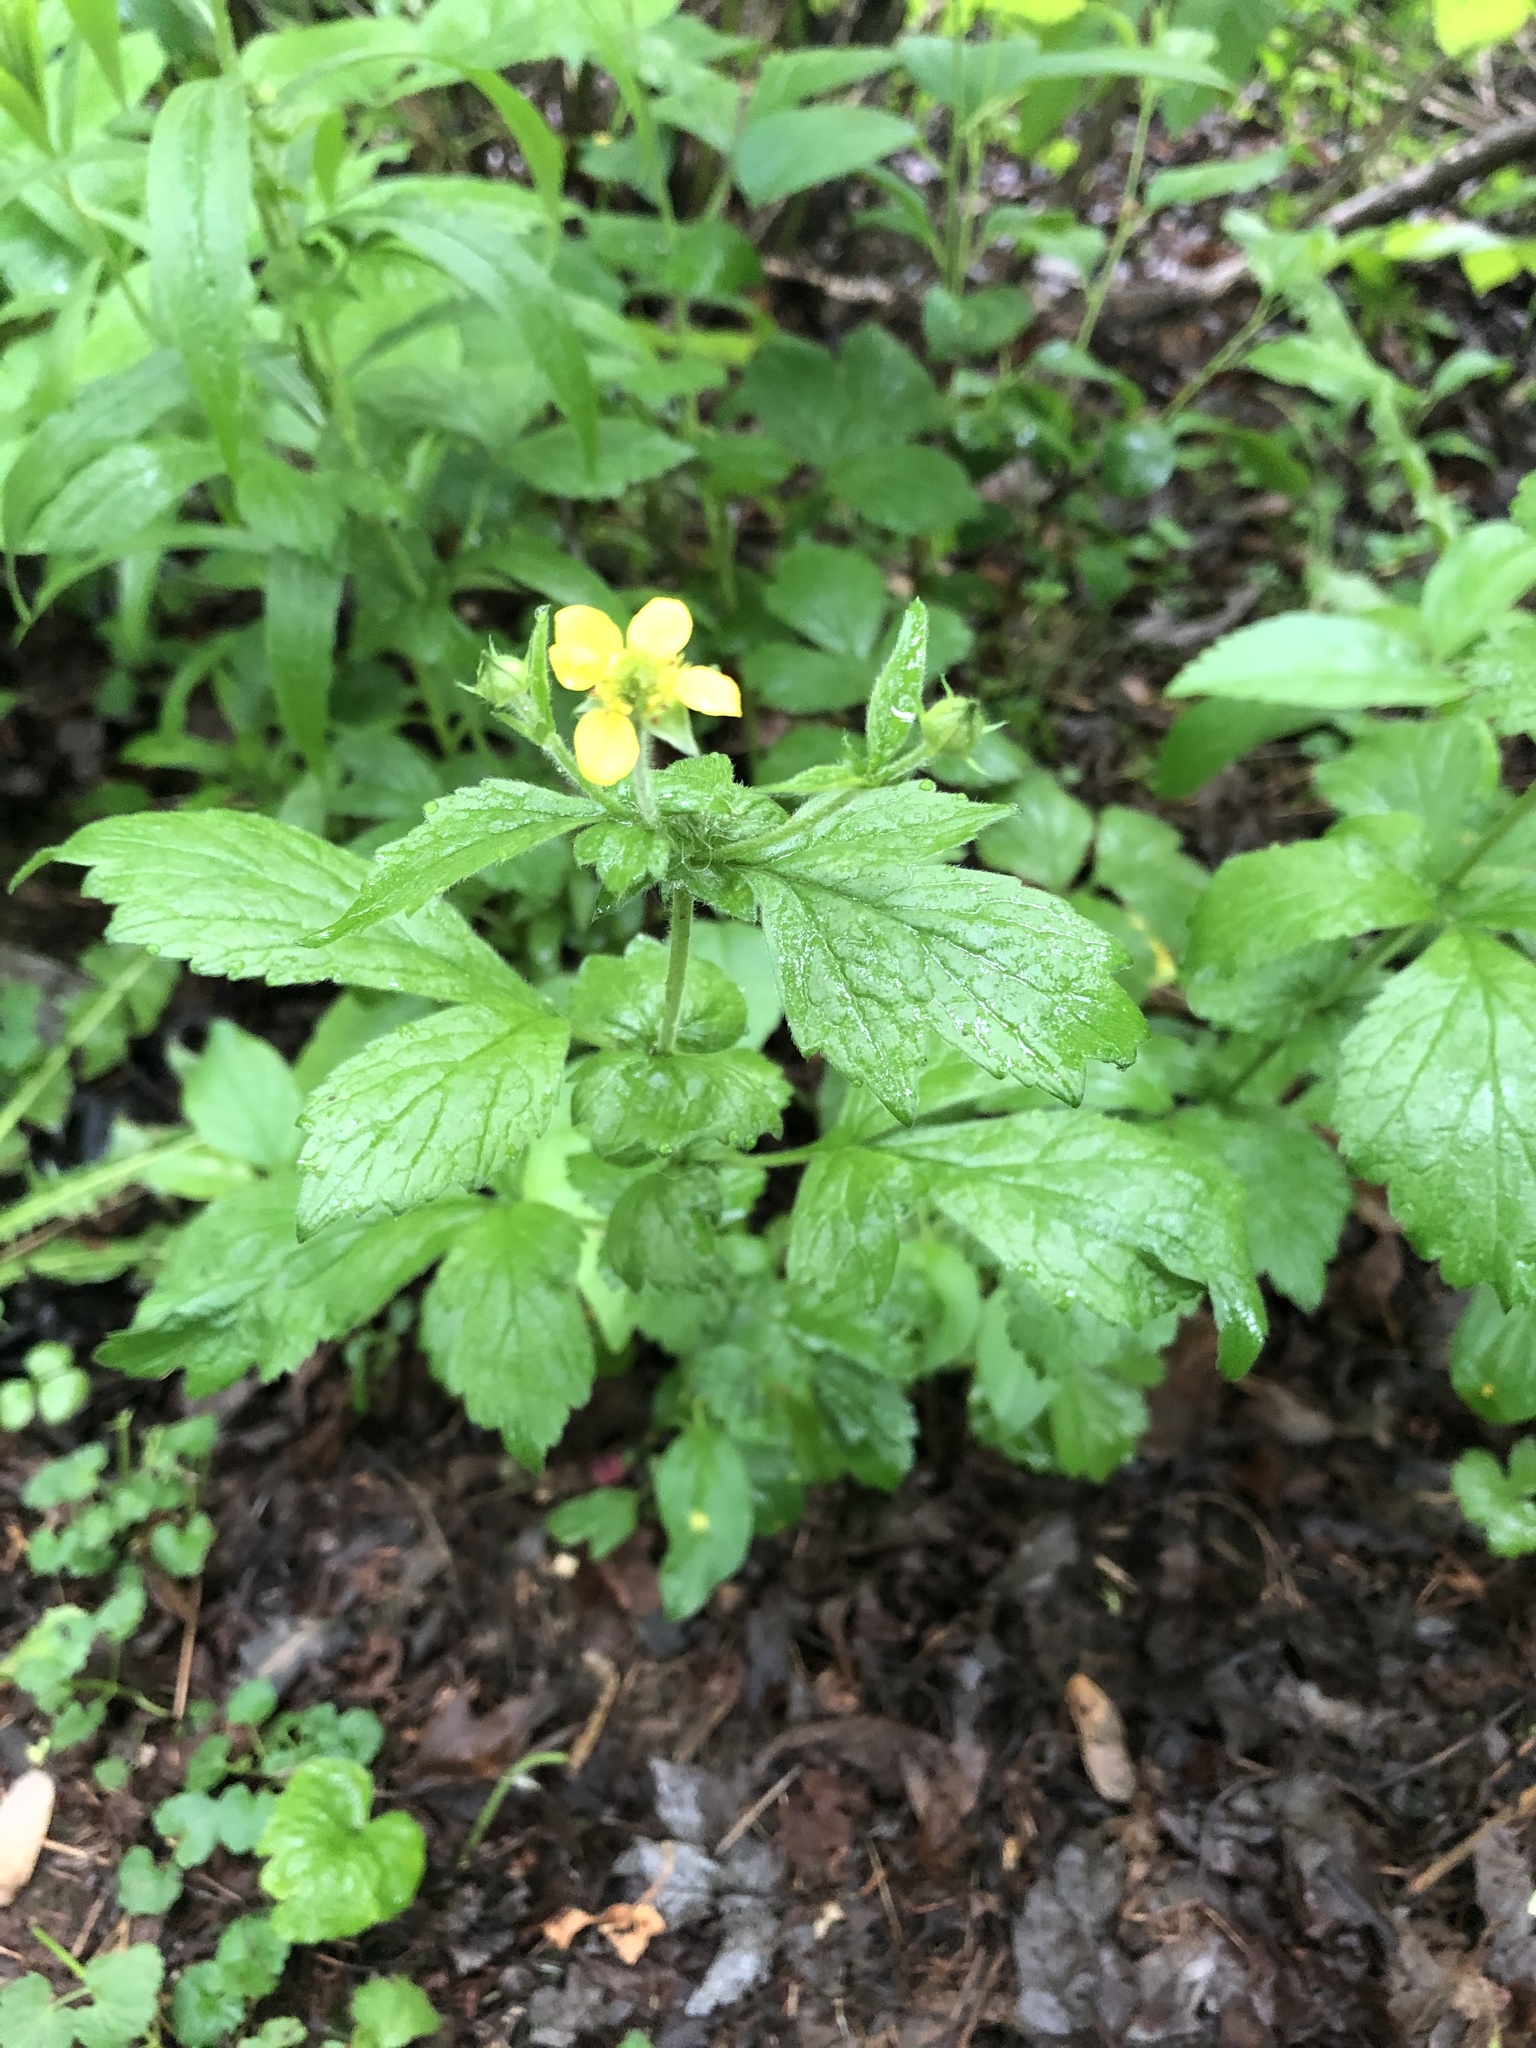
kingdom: Plantae
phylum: Tracheophyta
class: Magnoliopsida
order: Rosales
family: Rosaceae
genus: Geum
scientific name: Geum urbanum
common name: Wood avens
